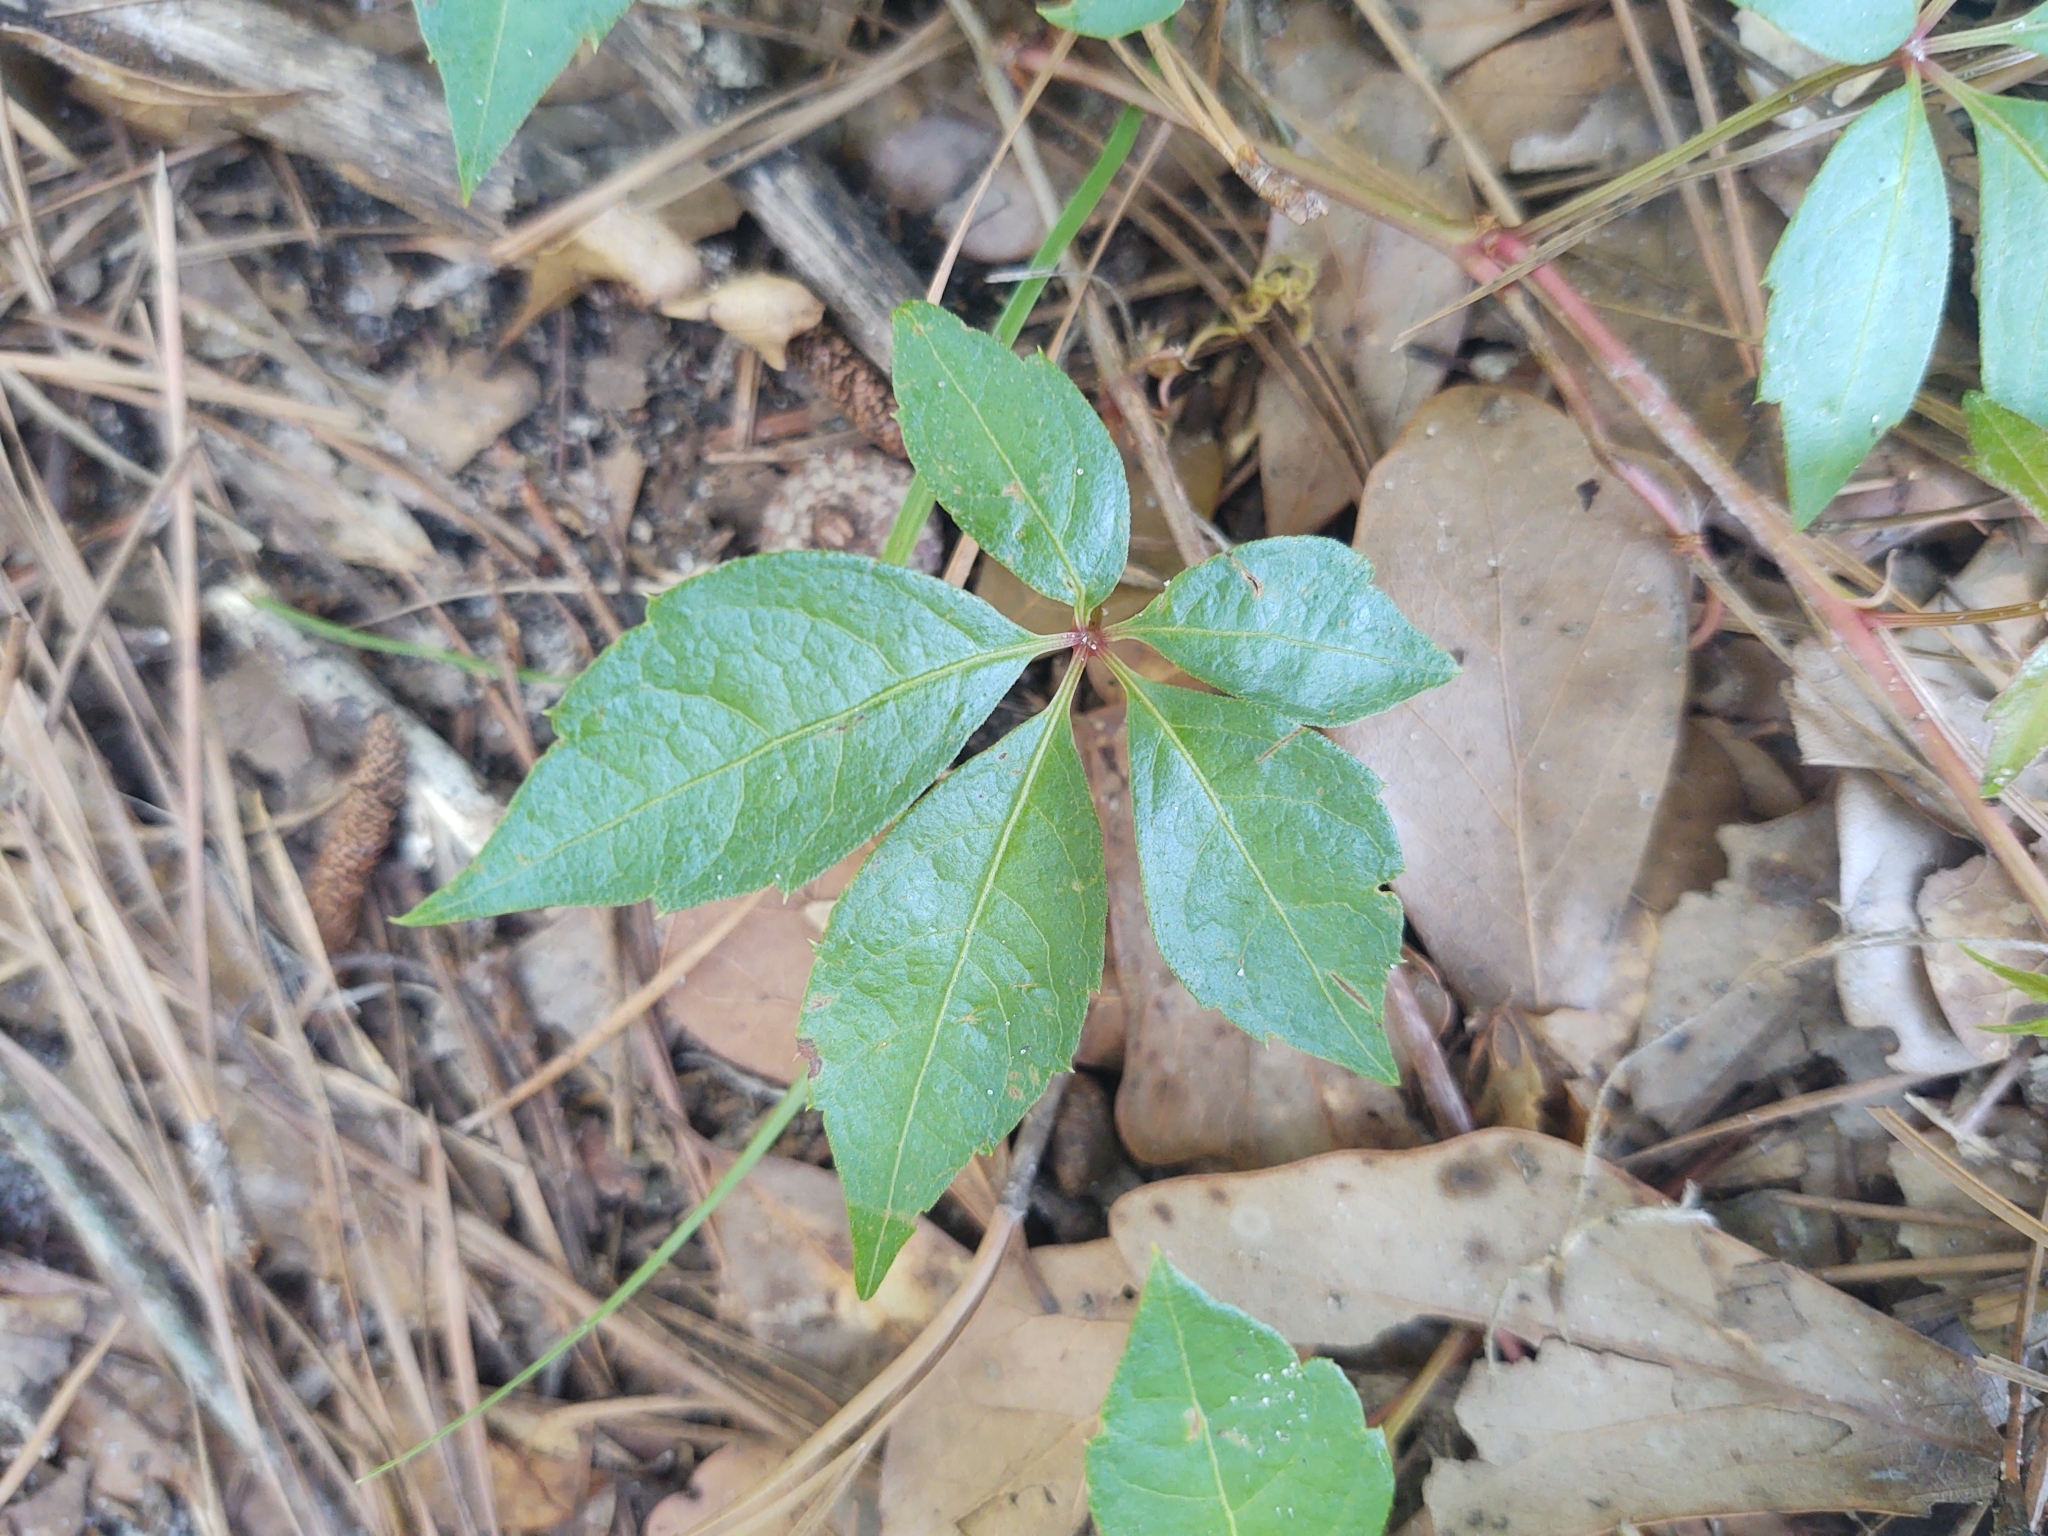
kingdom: Plantae
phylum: Tracheophyta
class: Magnoliopsida
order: Vitales
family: Vitaceae
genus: Parthenocissus
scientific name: Parthenocissus quinquefolia
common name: Virginia-creeper
